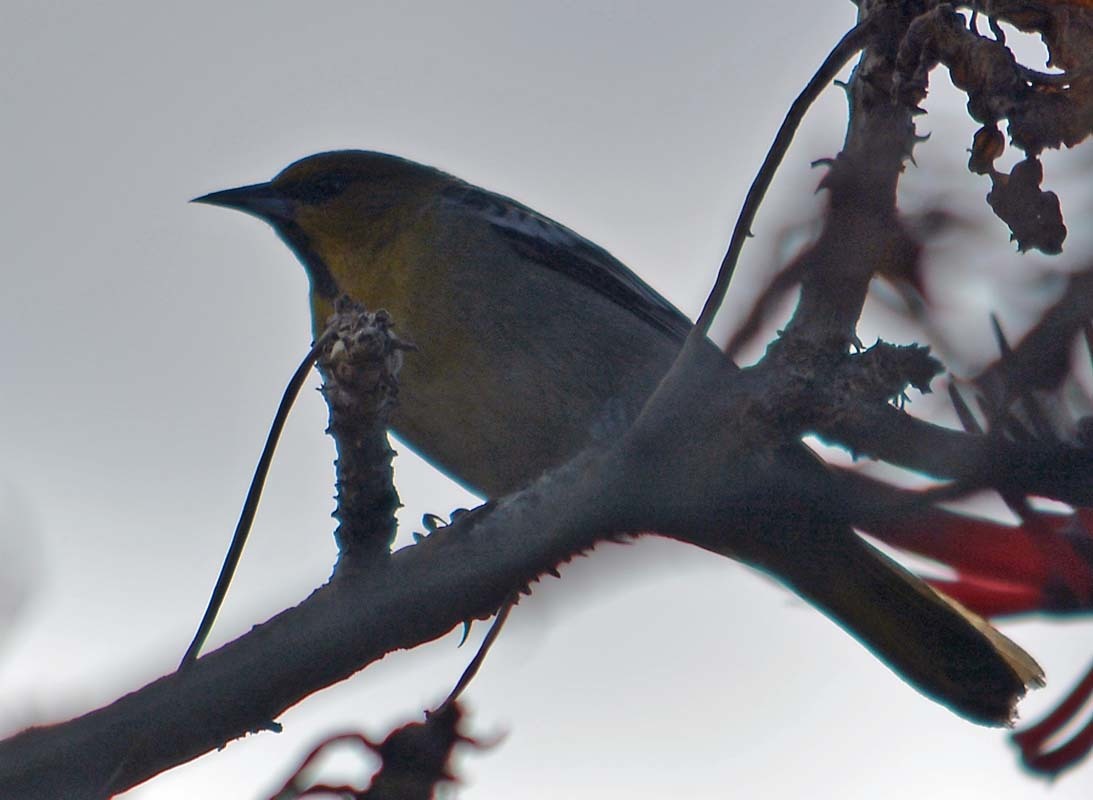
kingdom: Animalia
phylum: Chordata
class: Aves
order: Passeriformes
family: Icteridae
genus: Icterus
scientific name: Icterus bullockii
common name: Bullock's oriole
